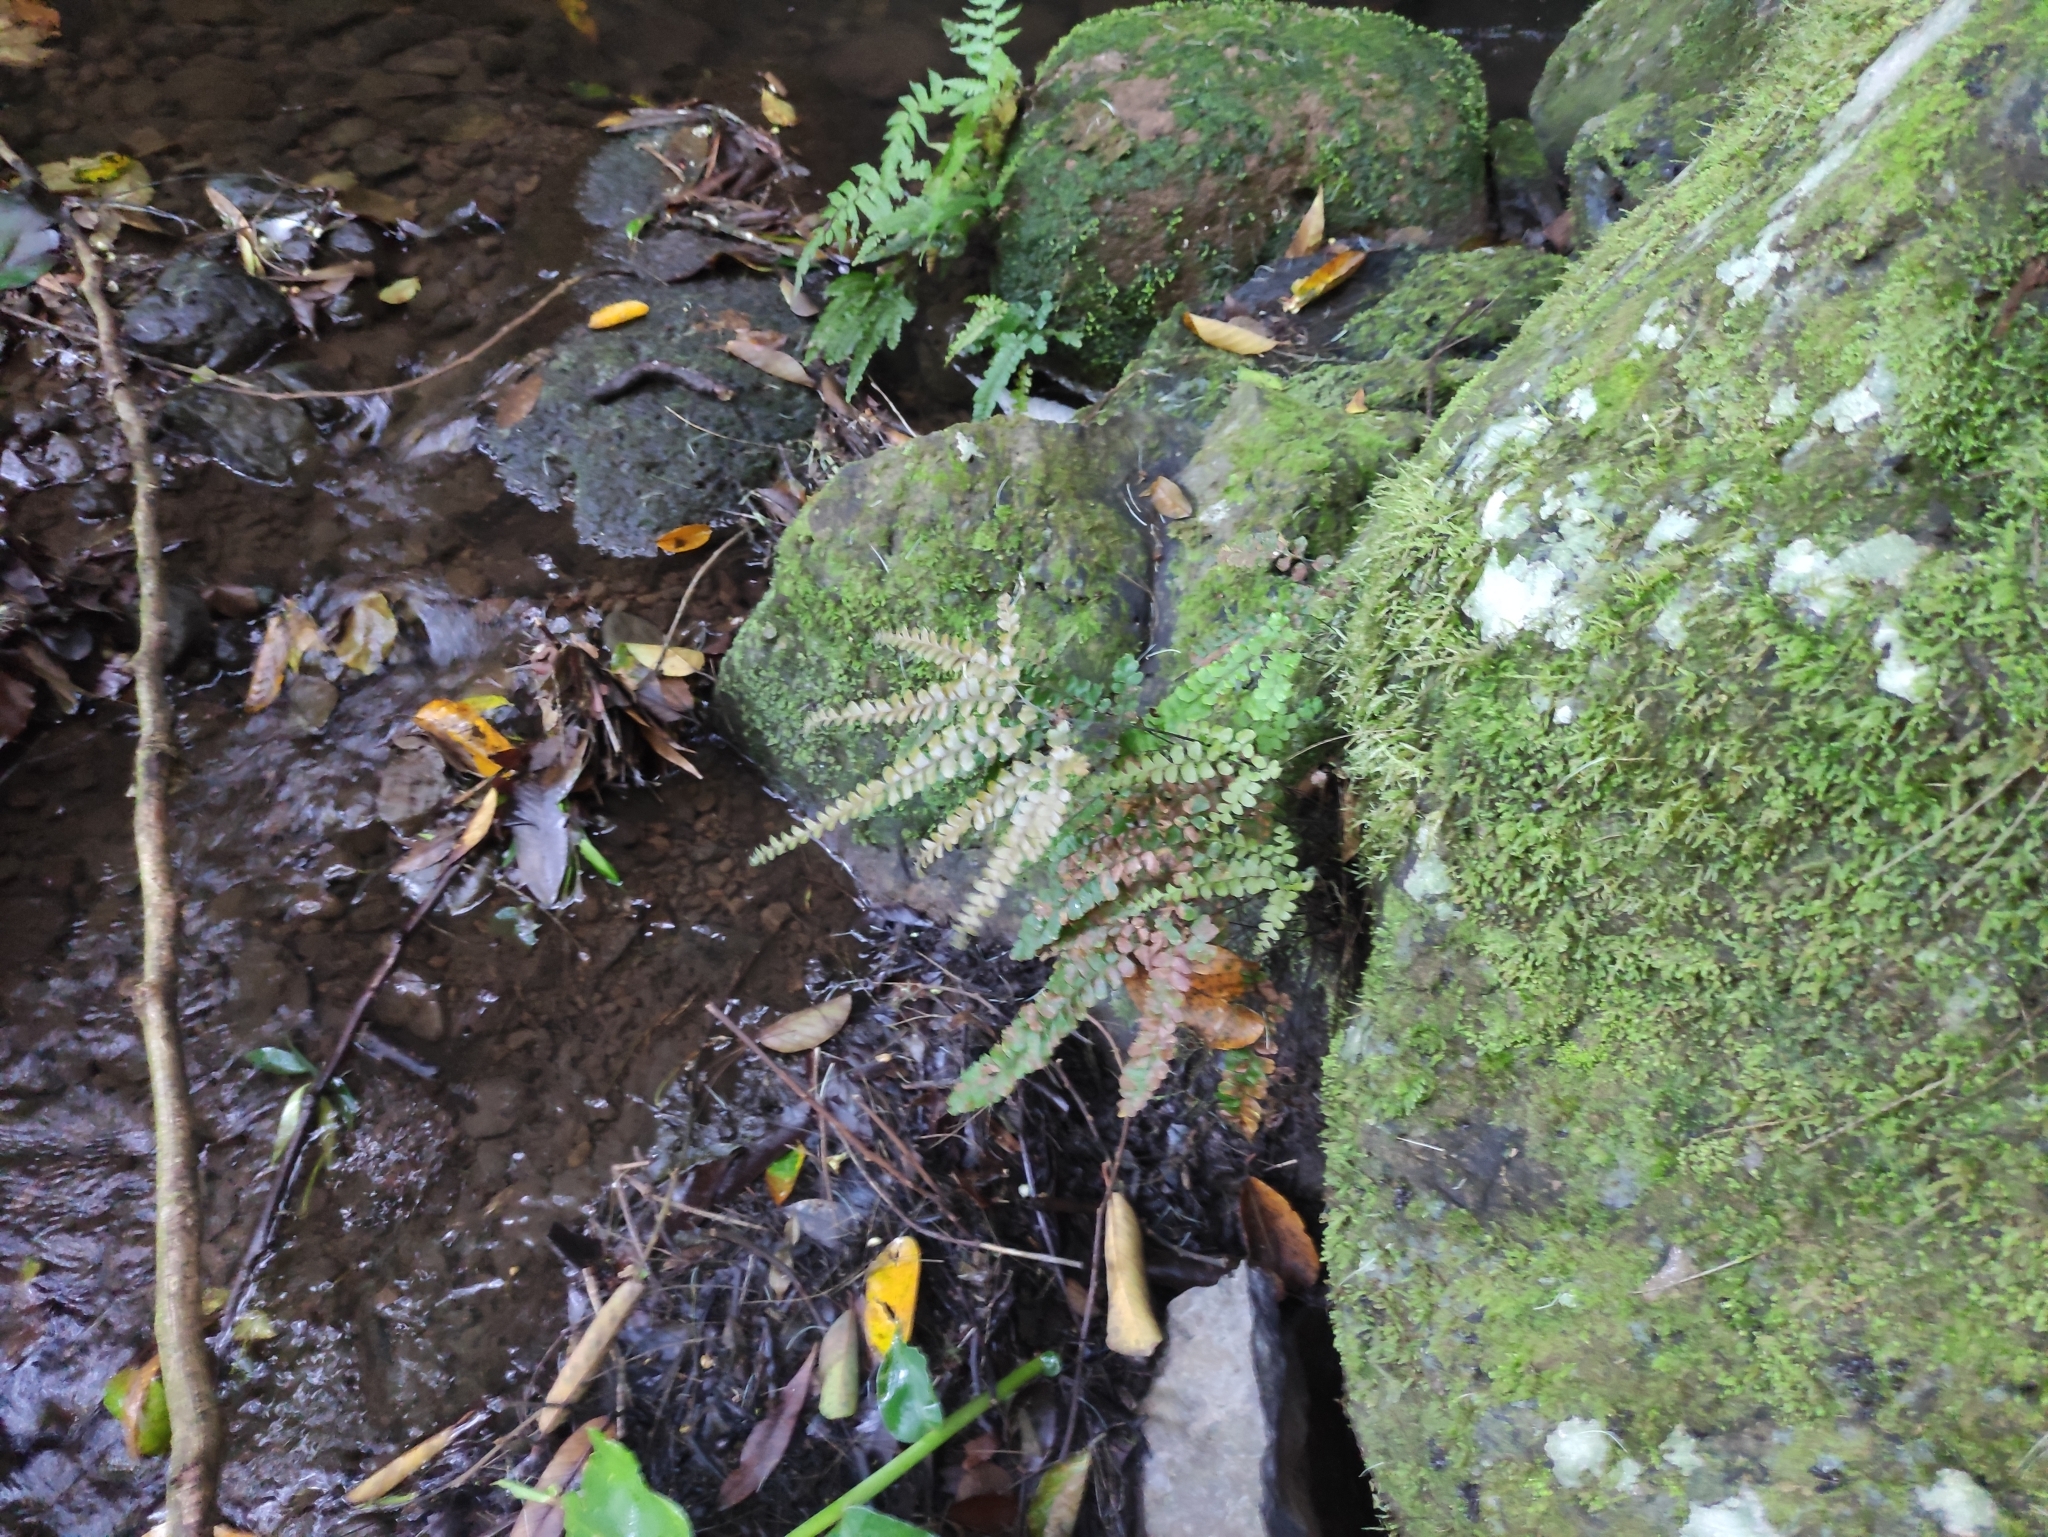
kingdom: Plantae
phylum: Tracheophyta
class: Polypodiopsida
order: Polypodiales
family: Pteridaceae
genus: Adiantum
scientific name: Adiantum hispidulum
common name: Rough maidenhair
